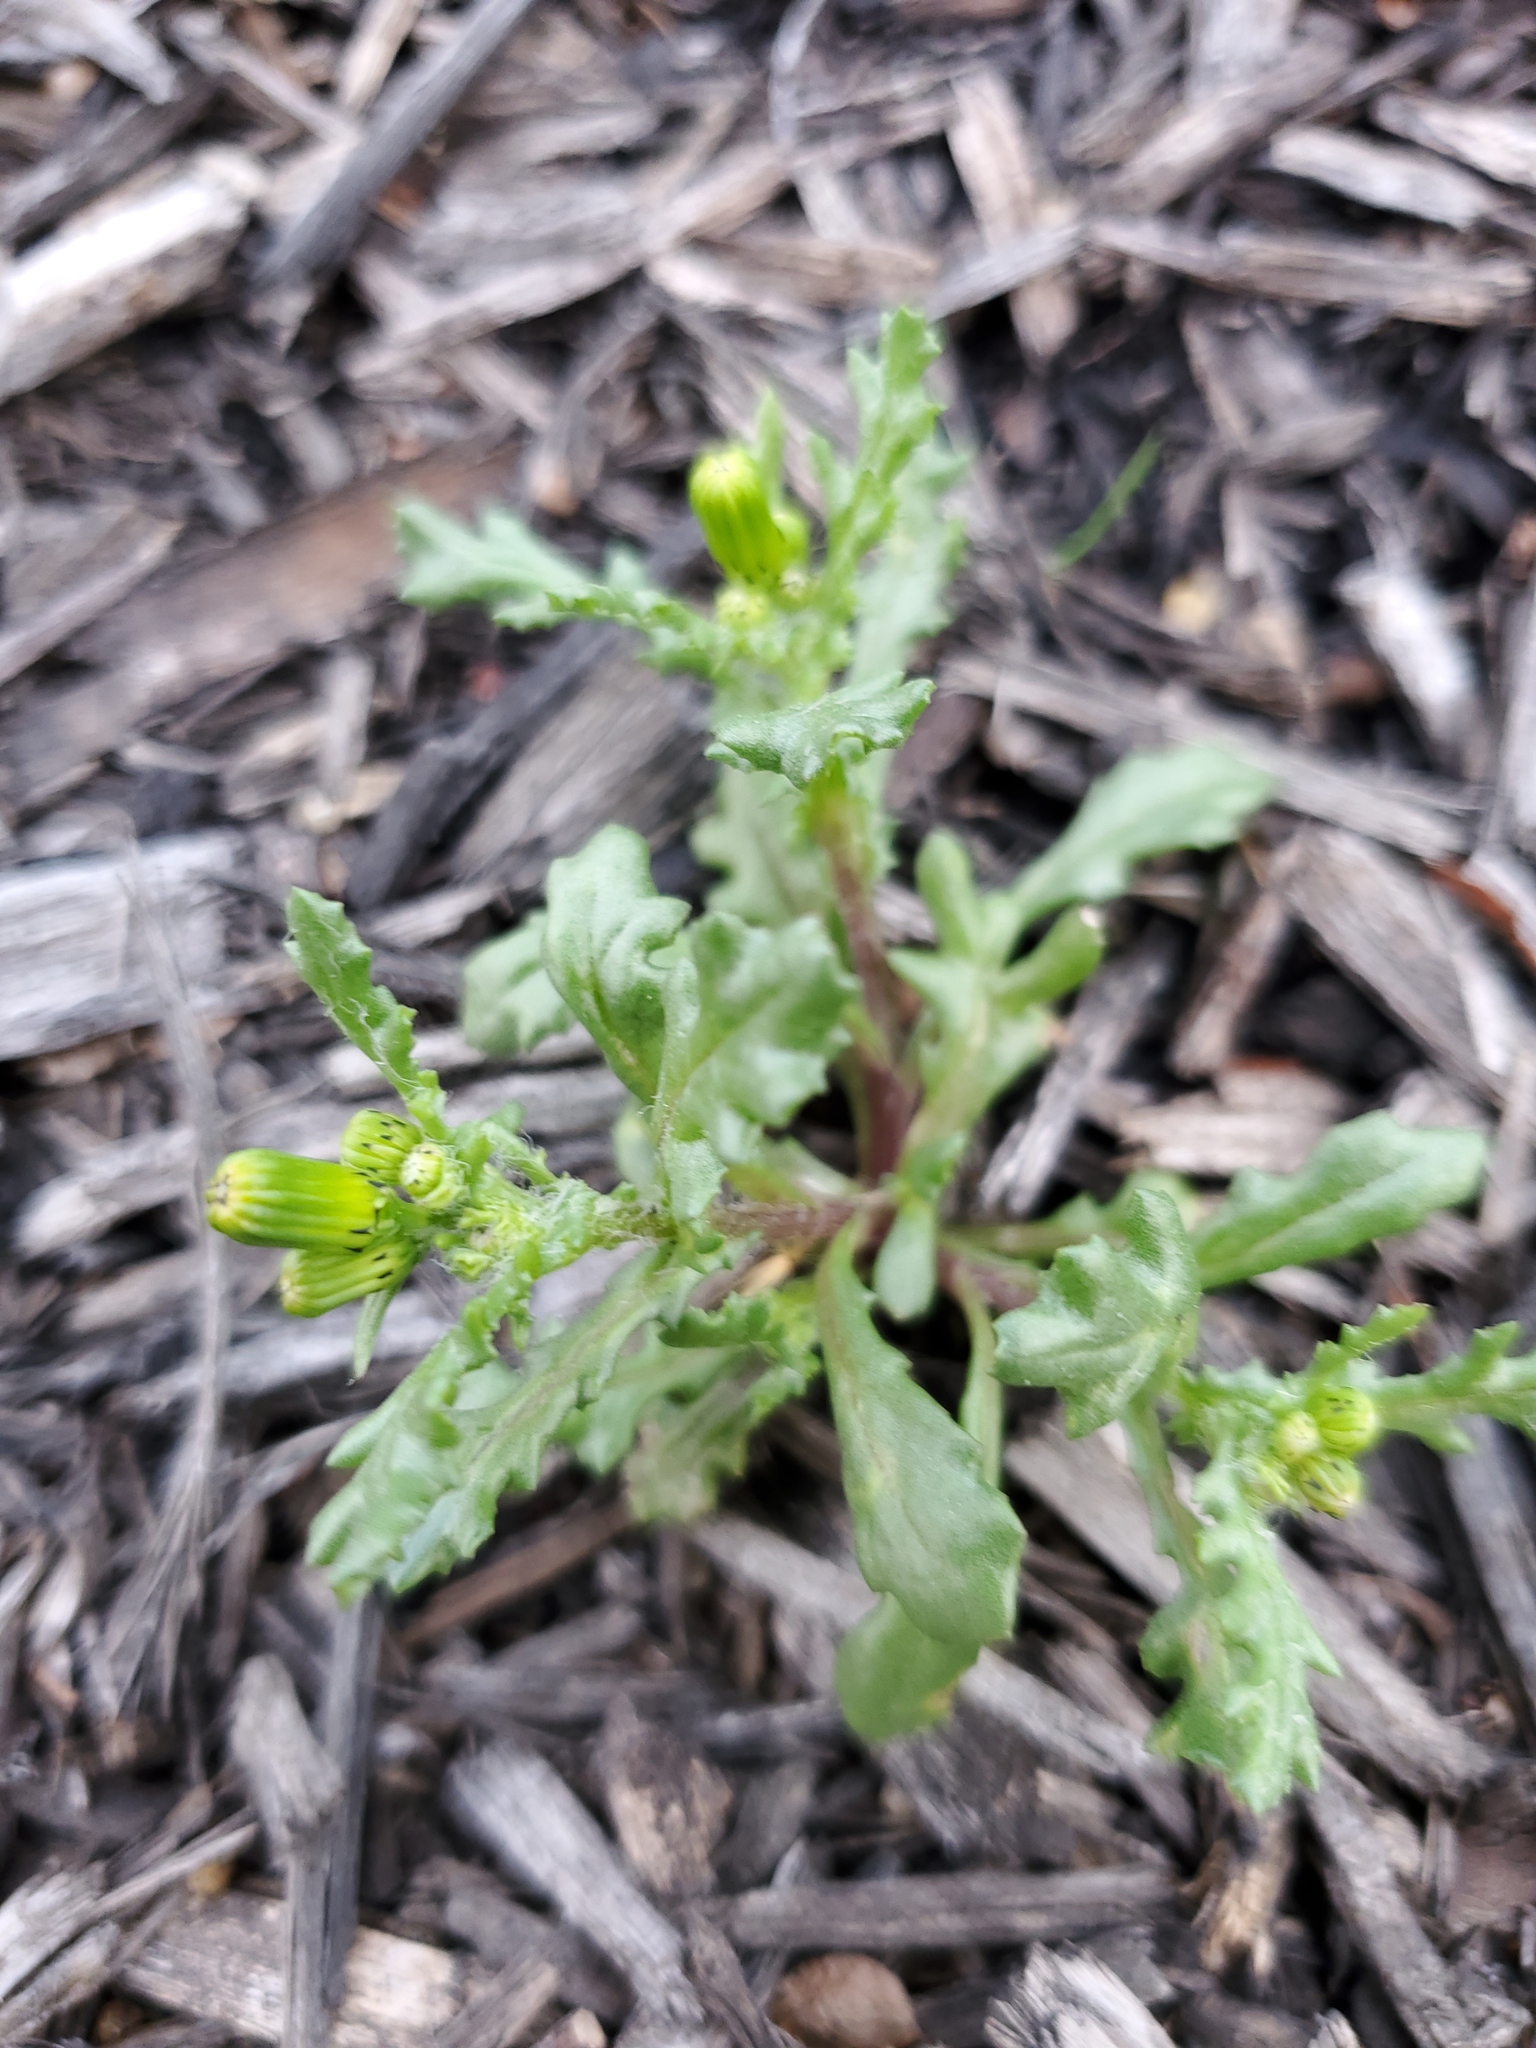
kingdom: Plantae
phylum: Tracheophyta
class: Magnoliopsida
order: Asterales
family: Asteraceae
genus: Senecio
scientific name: Senecio vulgaris
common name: Old-man-in-the-spring
